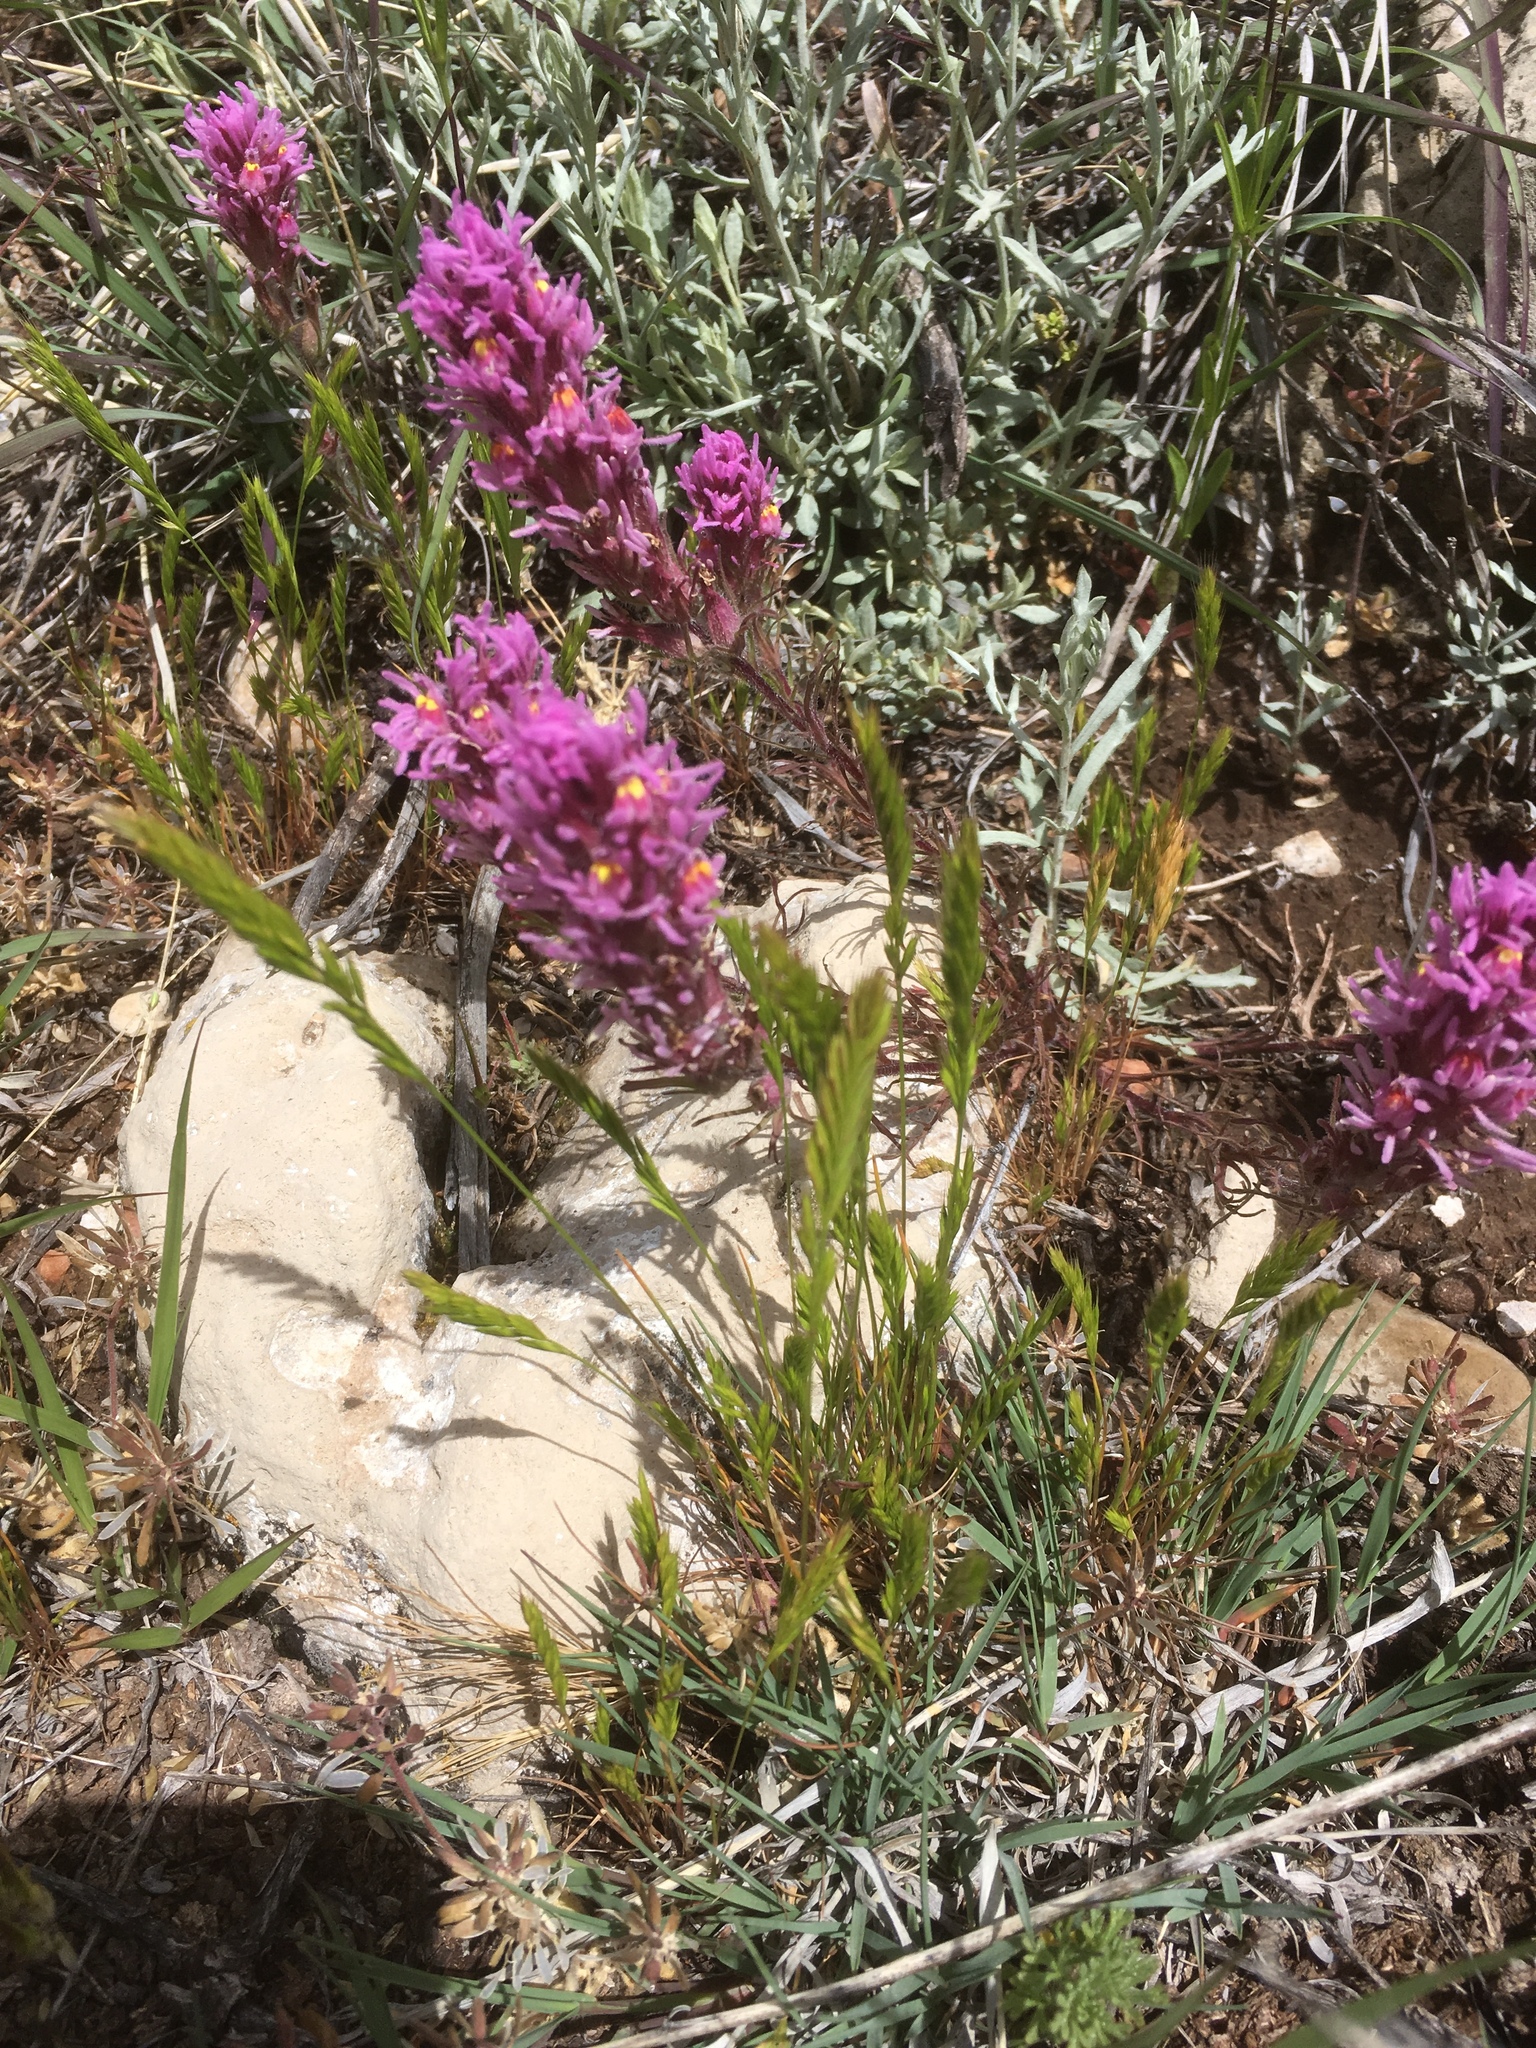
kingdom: Plantae
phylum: Tracheophyta
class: Magnoliopsida
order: Lamiales
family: Orobanchaceae
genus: Castilleja
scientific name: Castilleja exserta
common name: Purple owl-clover
